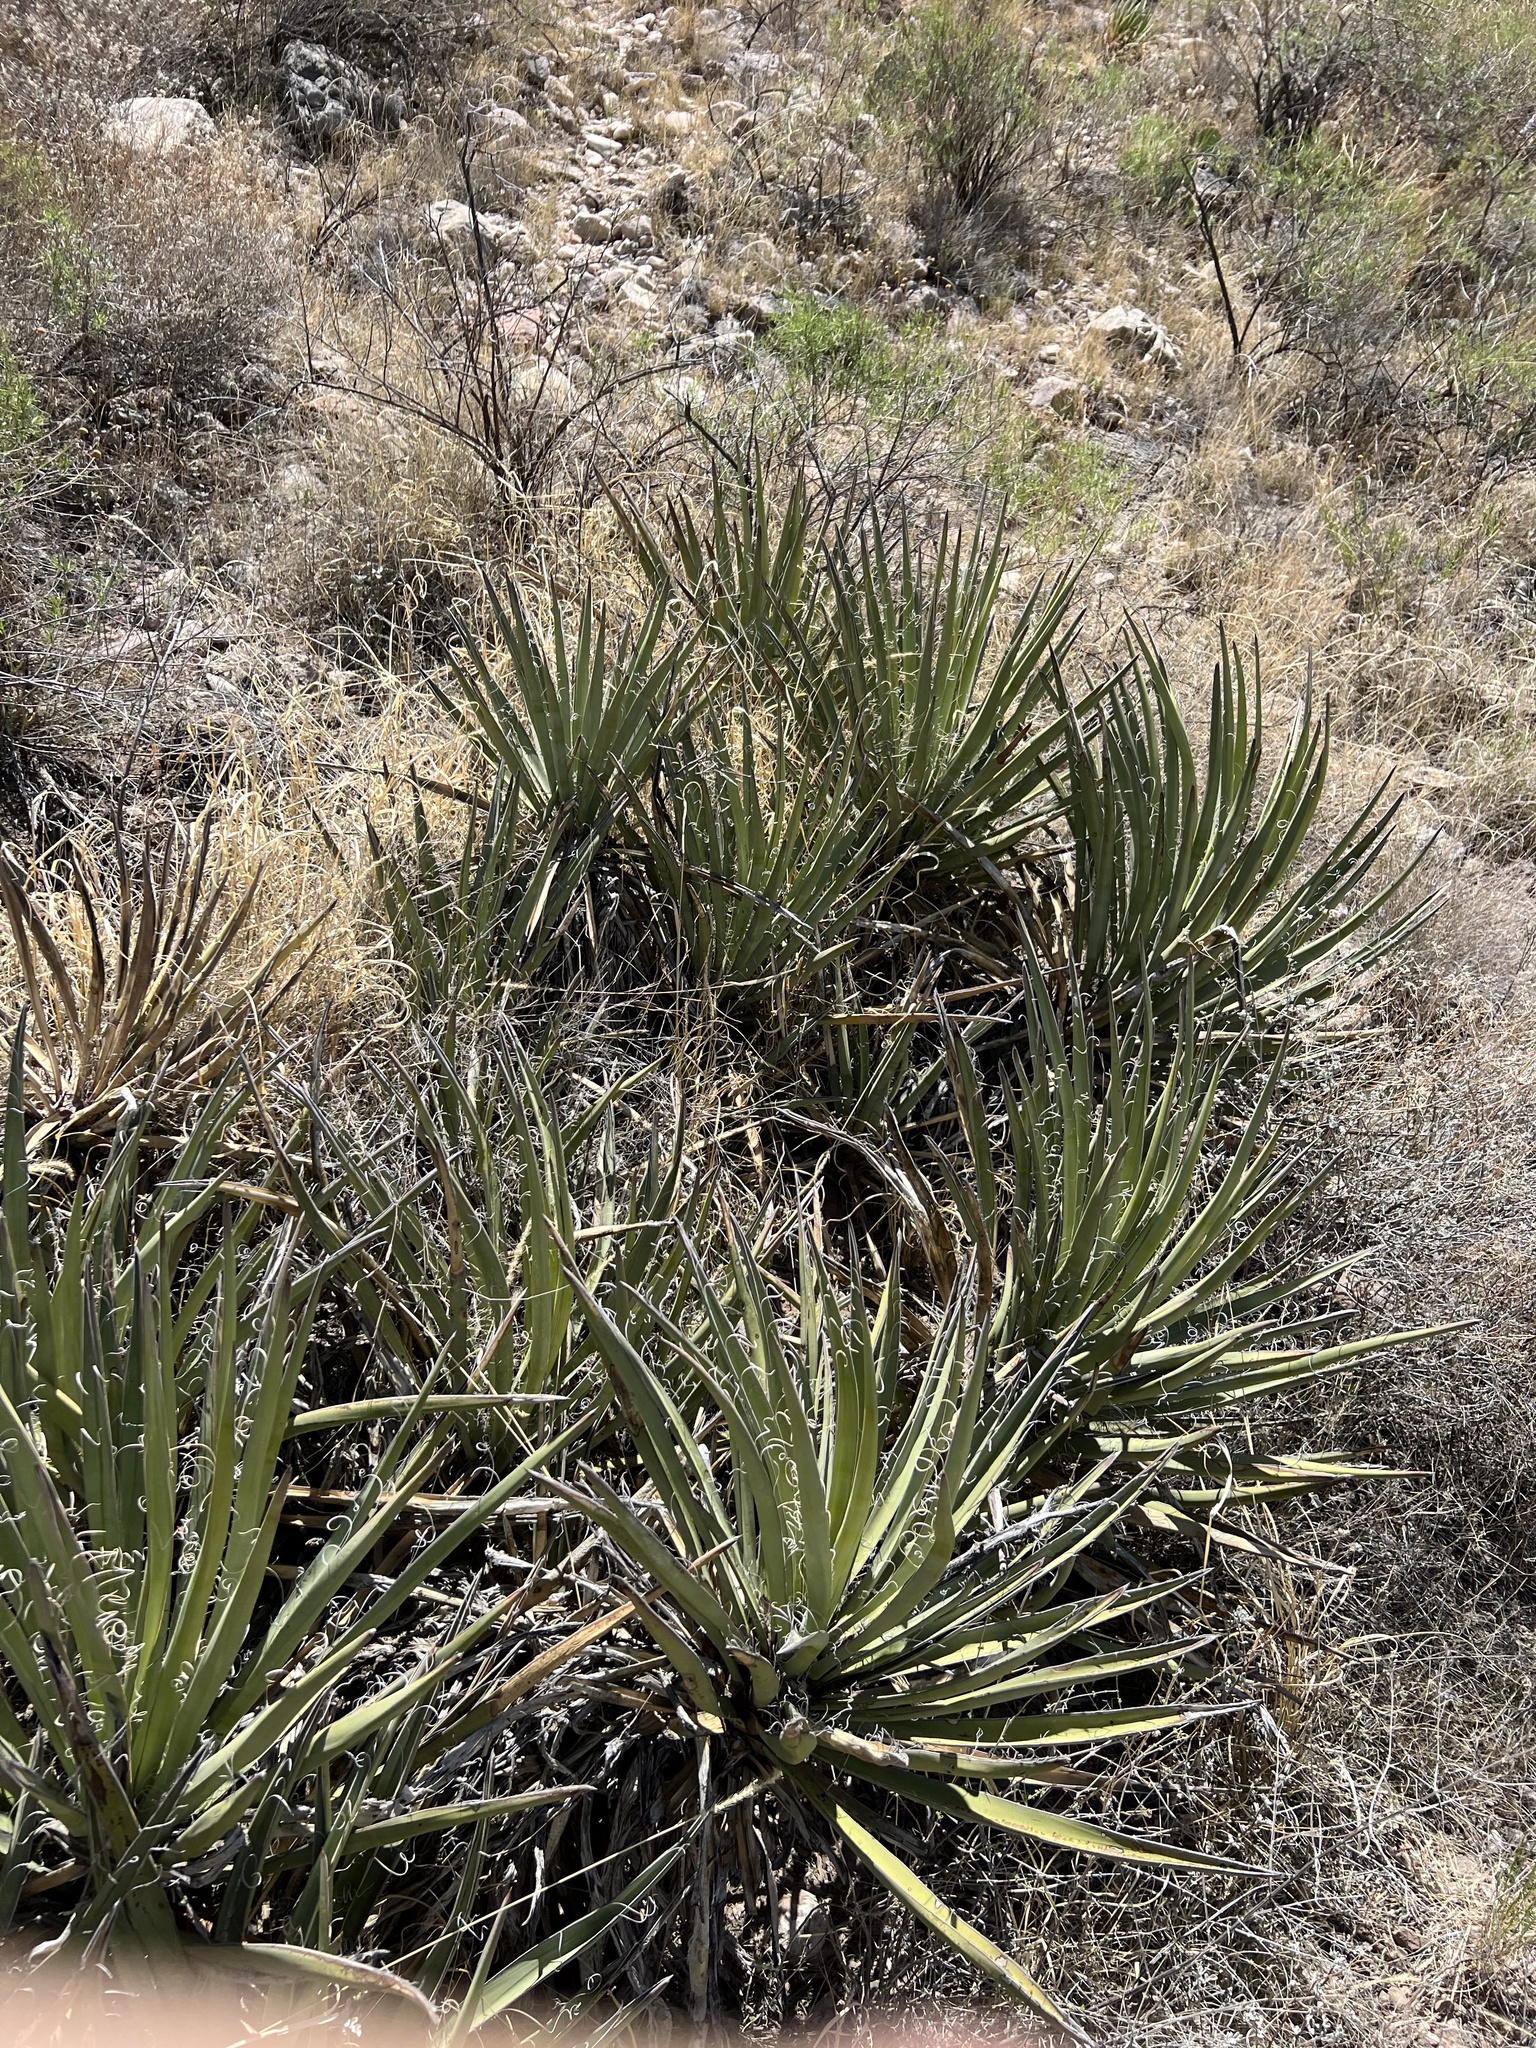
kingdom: Plantae
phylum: Tracheophyta
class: Liliopsida
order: Asparagales
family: Asparagaceae
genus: Yucca
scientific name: Yucca baccata
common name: Banana yucca
